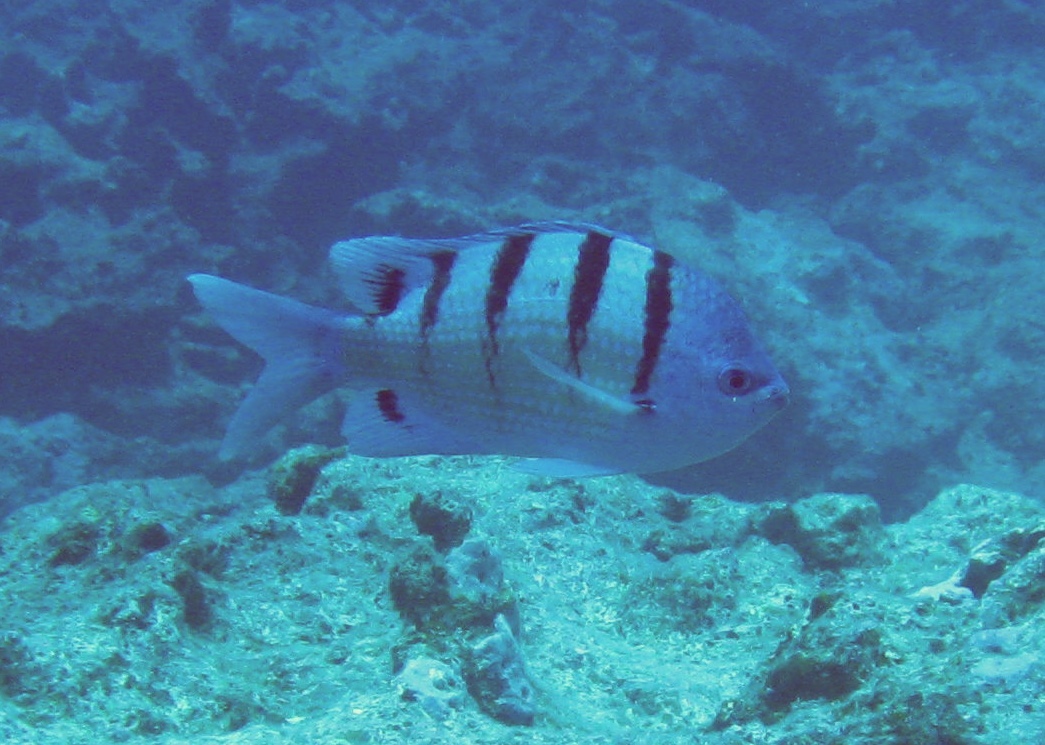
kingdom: Animalia
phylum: Chordata
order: Perciformes
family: Pomacentridae
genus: Abudefduf
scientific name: Abudefduf abdominalis
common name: Green damselfish
